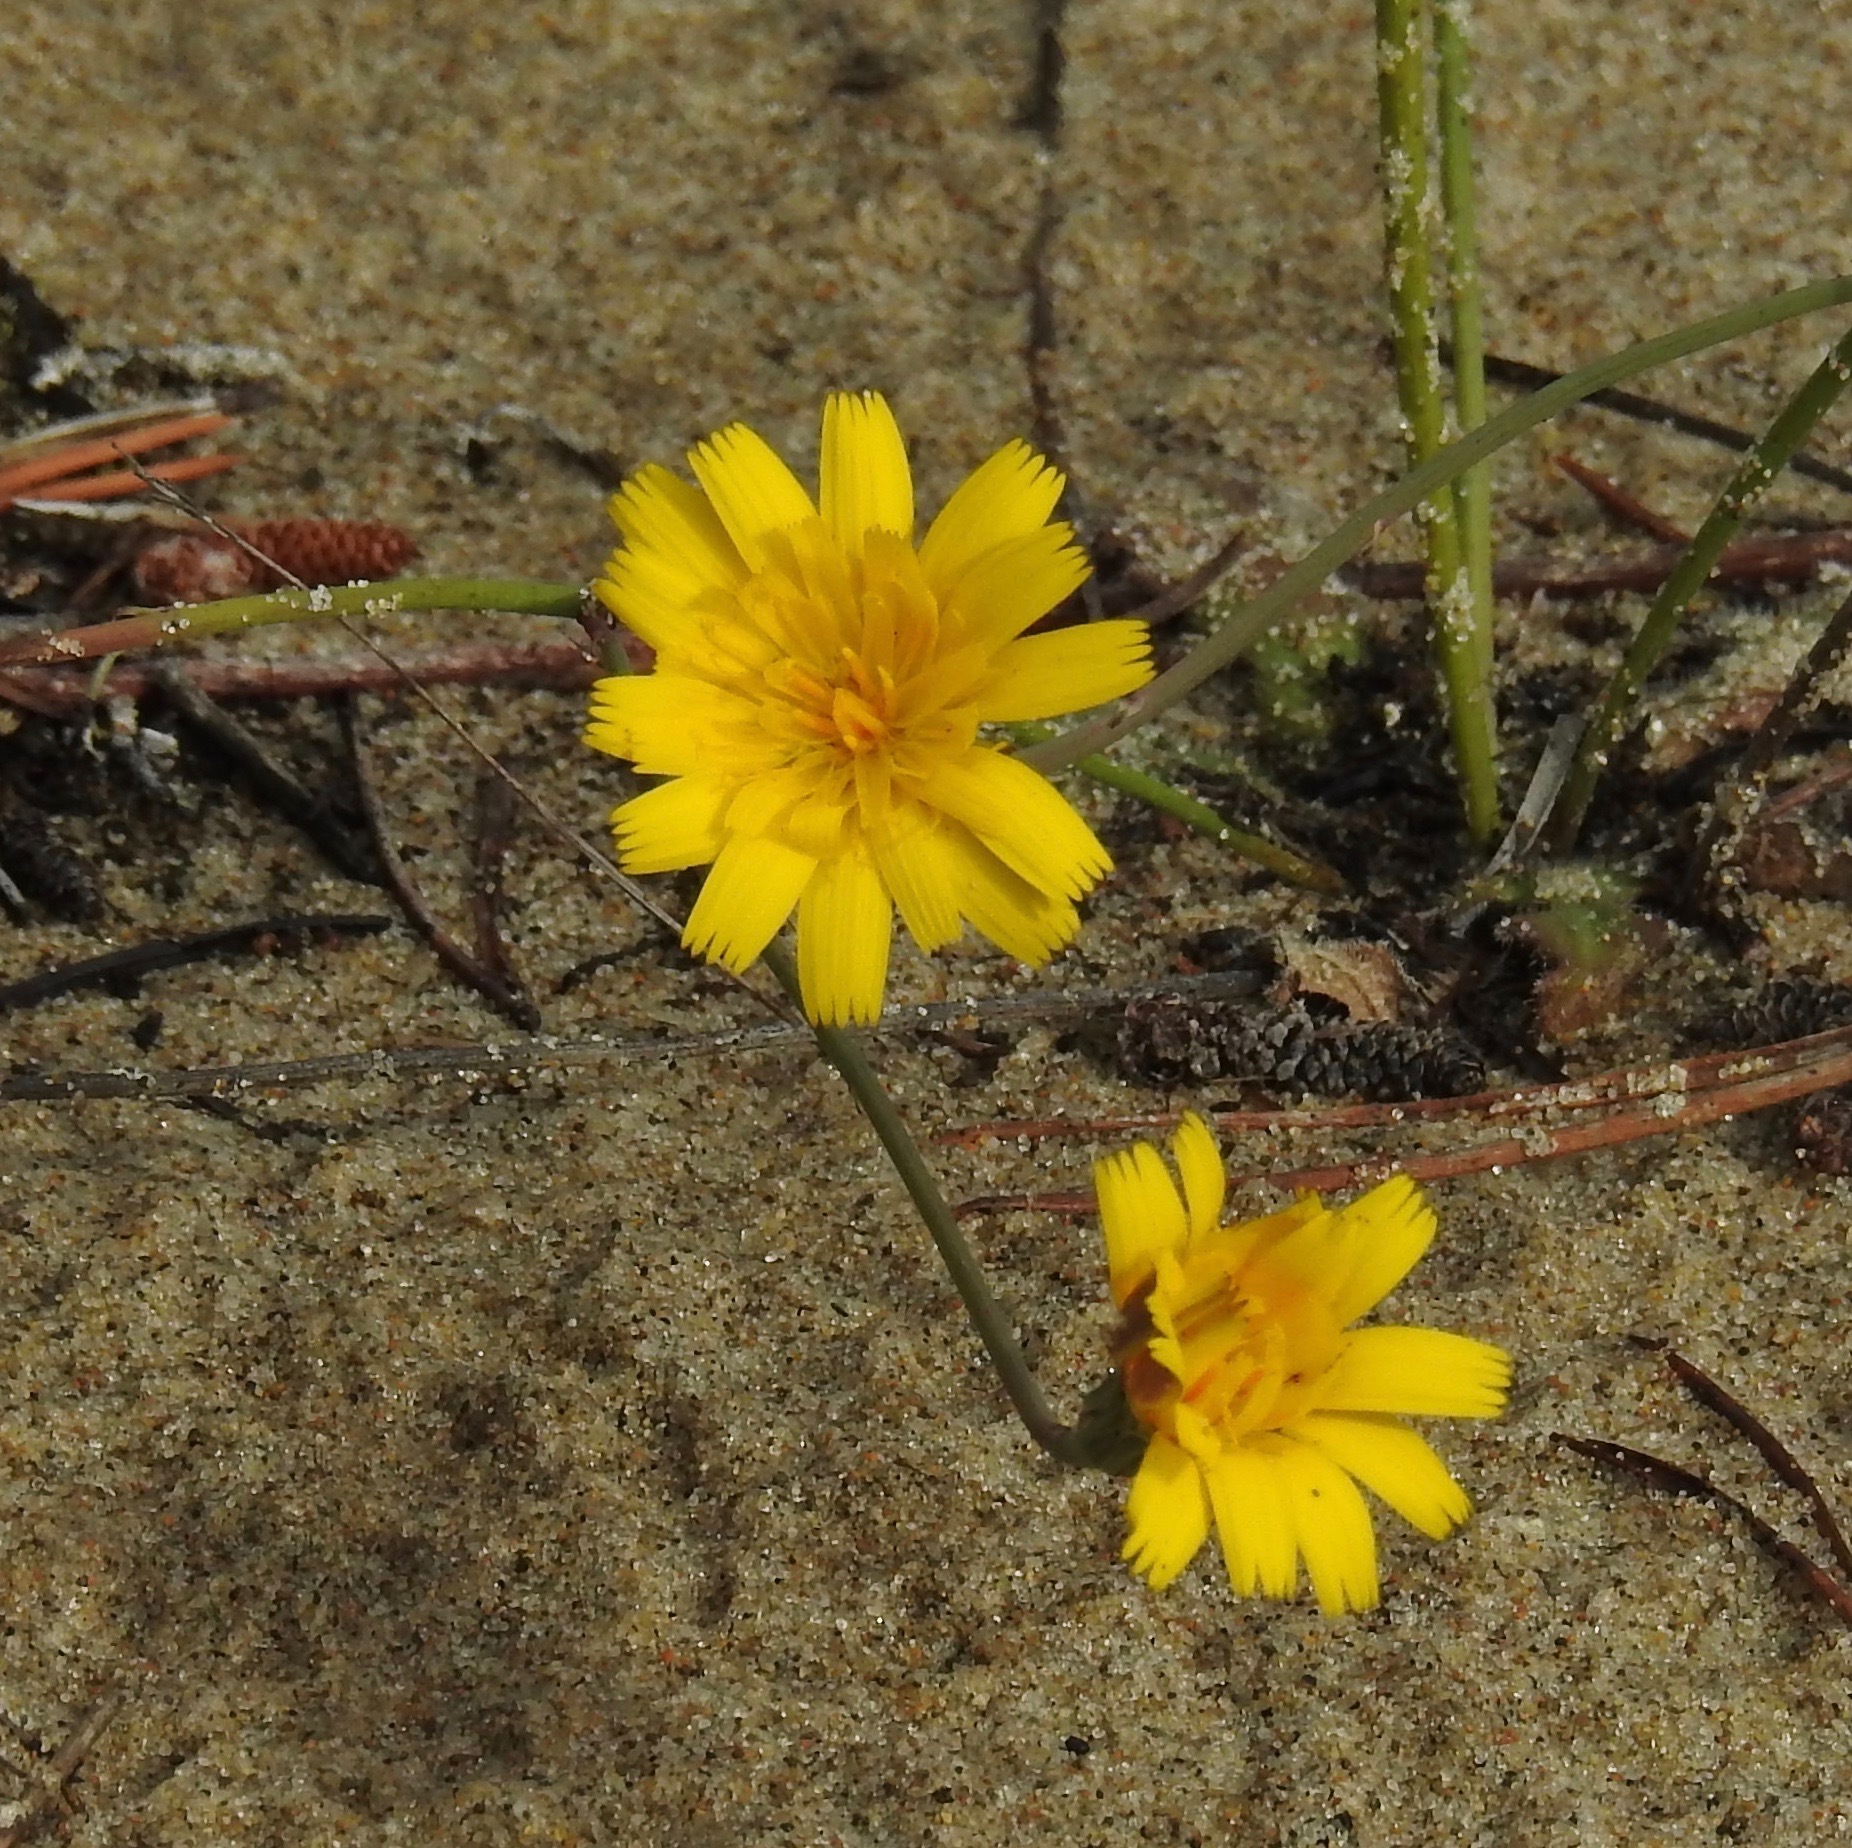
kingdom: Plantae
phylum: Tracheophyta
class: Magnoliopsida
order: Asterales
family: Asteraceae
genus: Hypochaeris
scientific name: Hypochaeris radicata
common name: Flatweed
